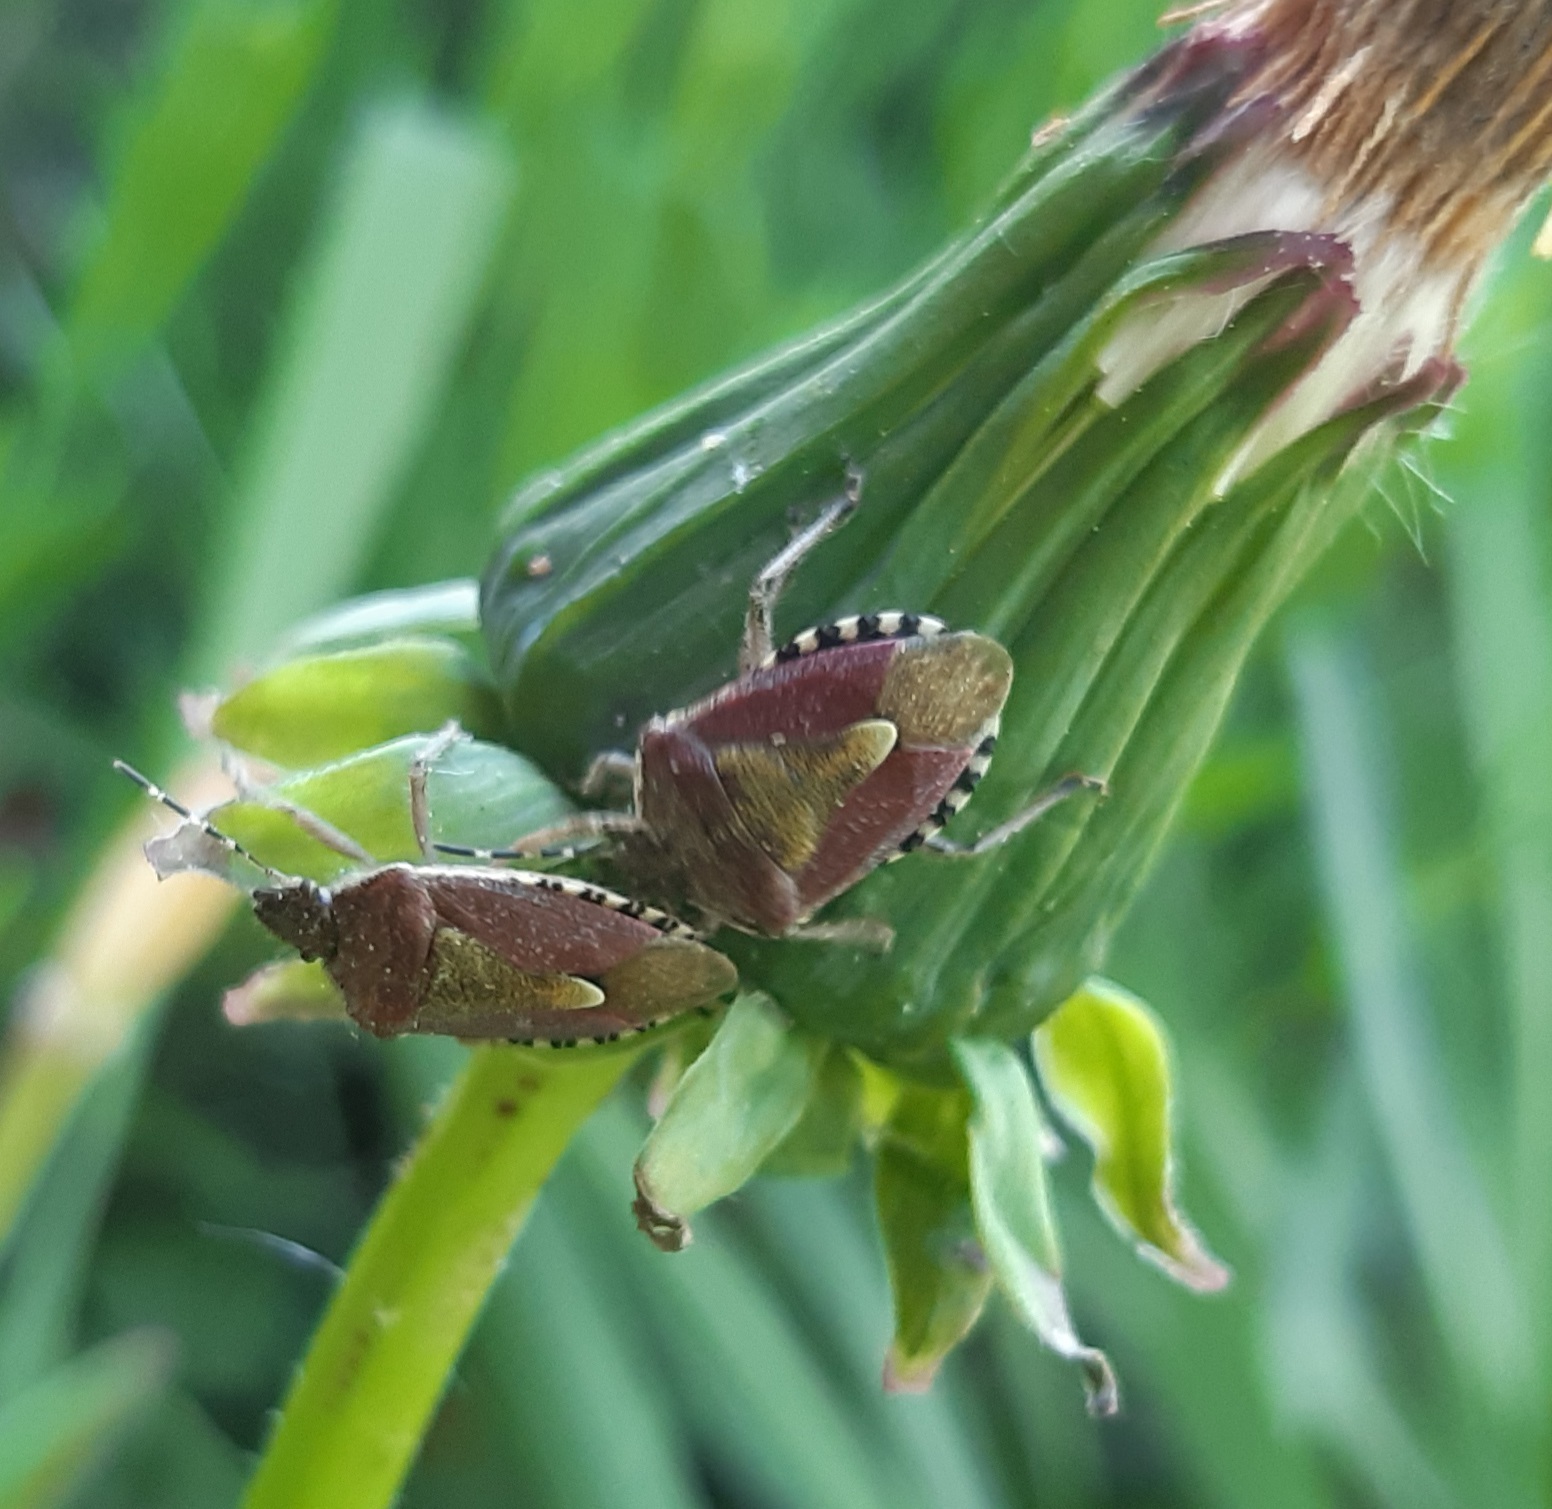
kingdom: Animalia
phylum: Arthropoda
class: Insecta
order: Hemiptera
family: Pentatomidae
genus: Dolycoris
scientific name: Dolycoris baccarum
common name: Sloe bug
